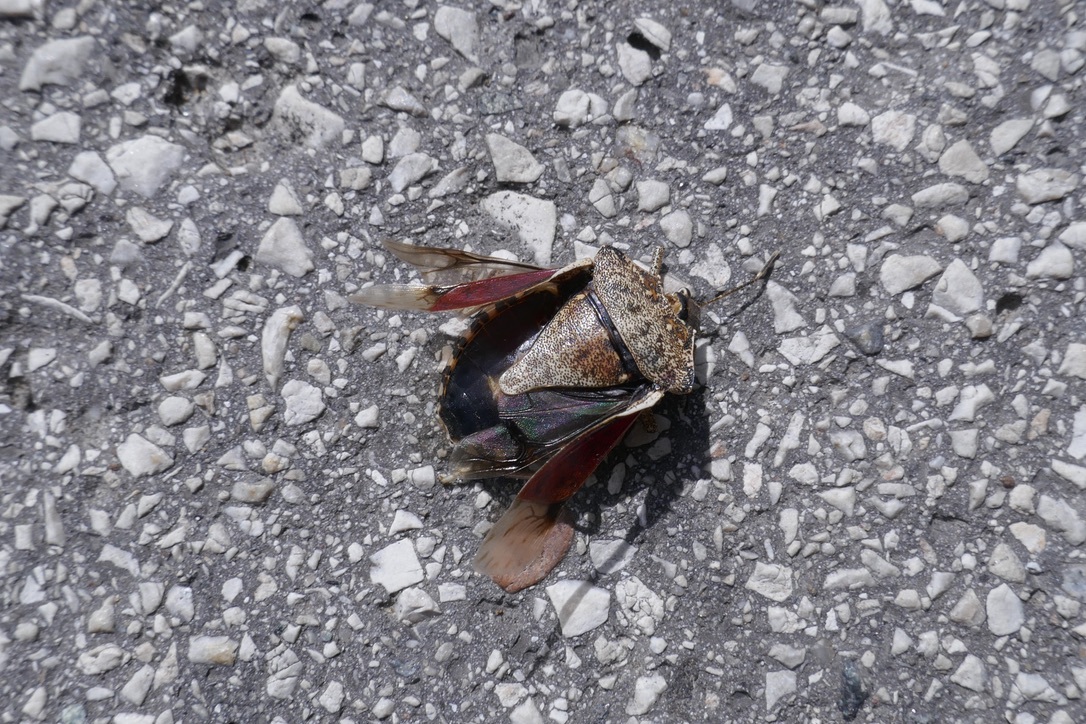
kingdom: Animalia
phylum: Arthropoda
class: Insecta
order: Hemiptera
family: Pentatomidae
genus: Halyomorpha
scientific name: Halyomorpha halys
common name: Brown marmorated stink bug
